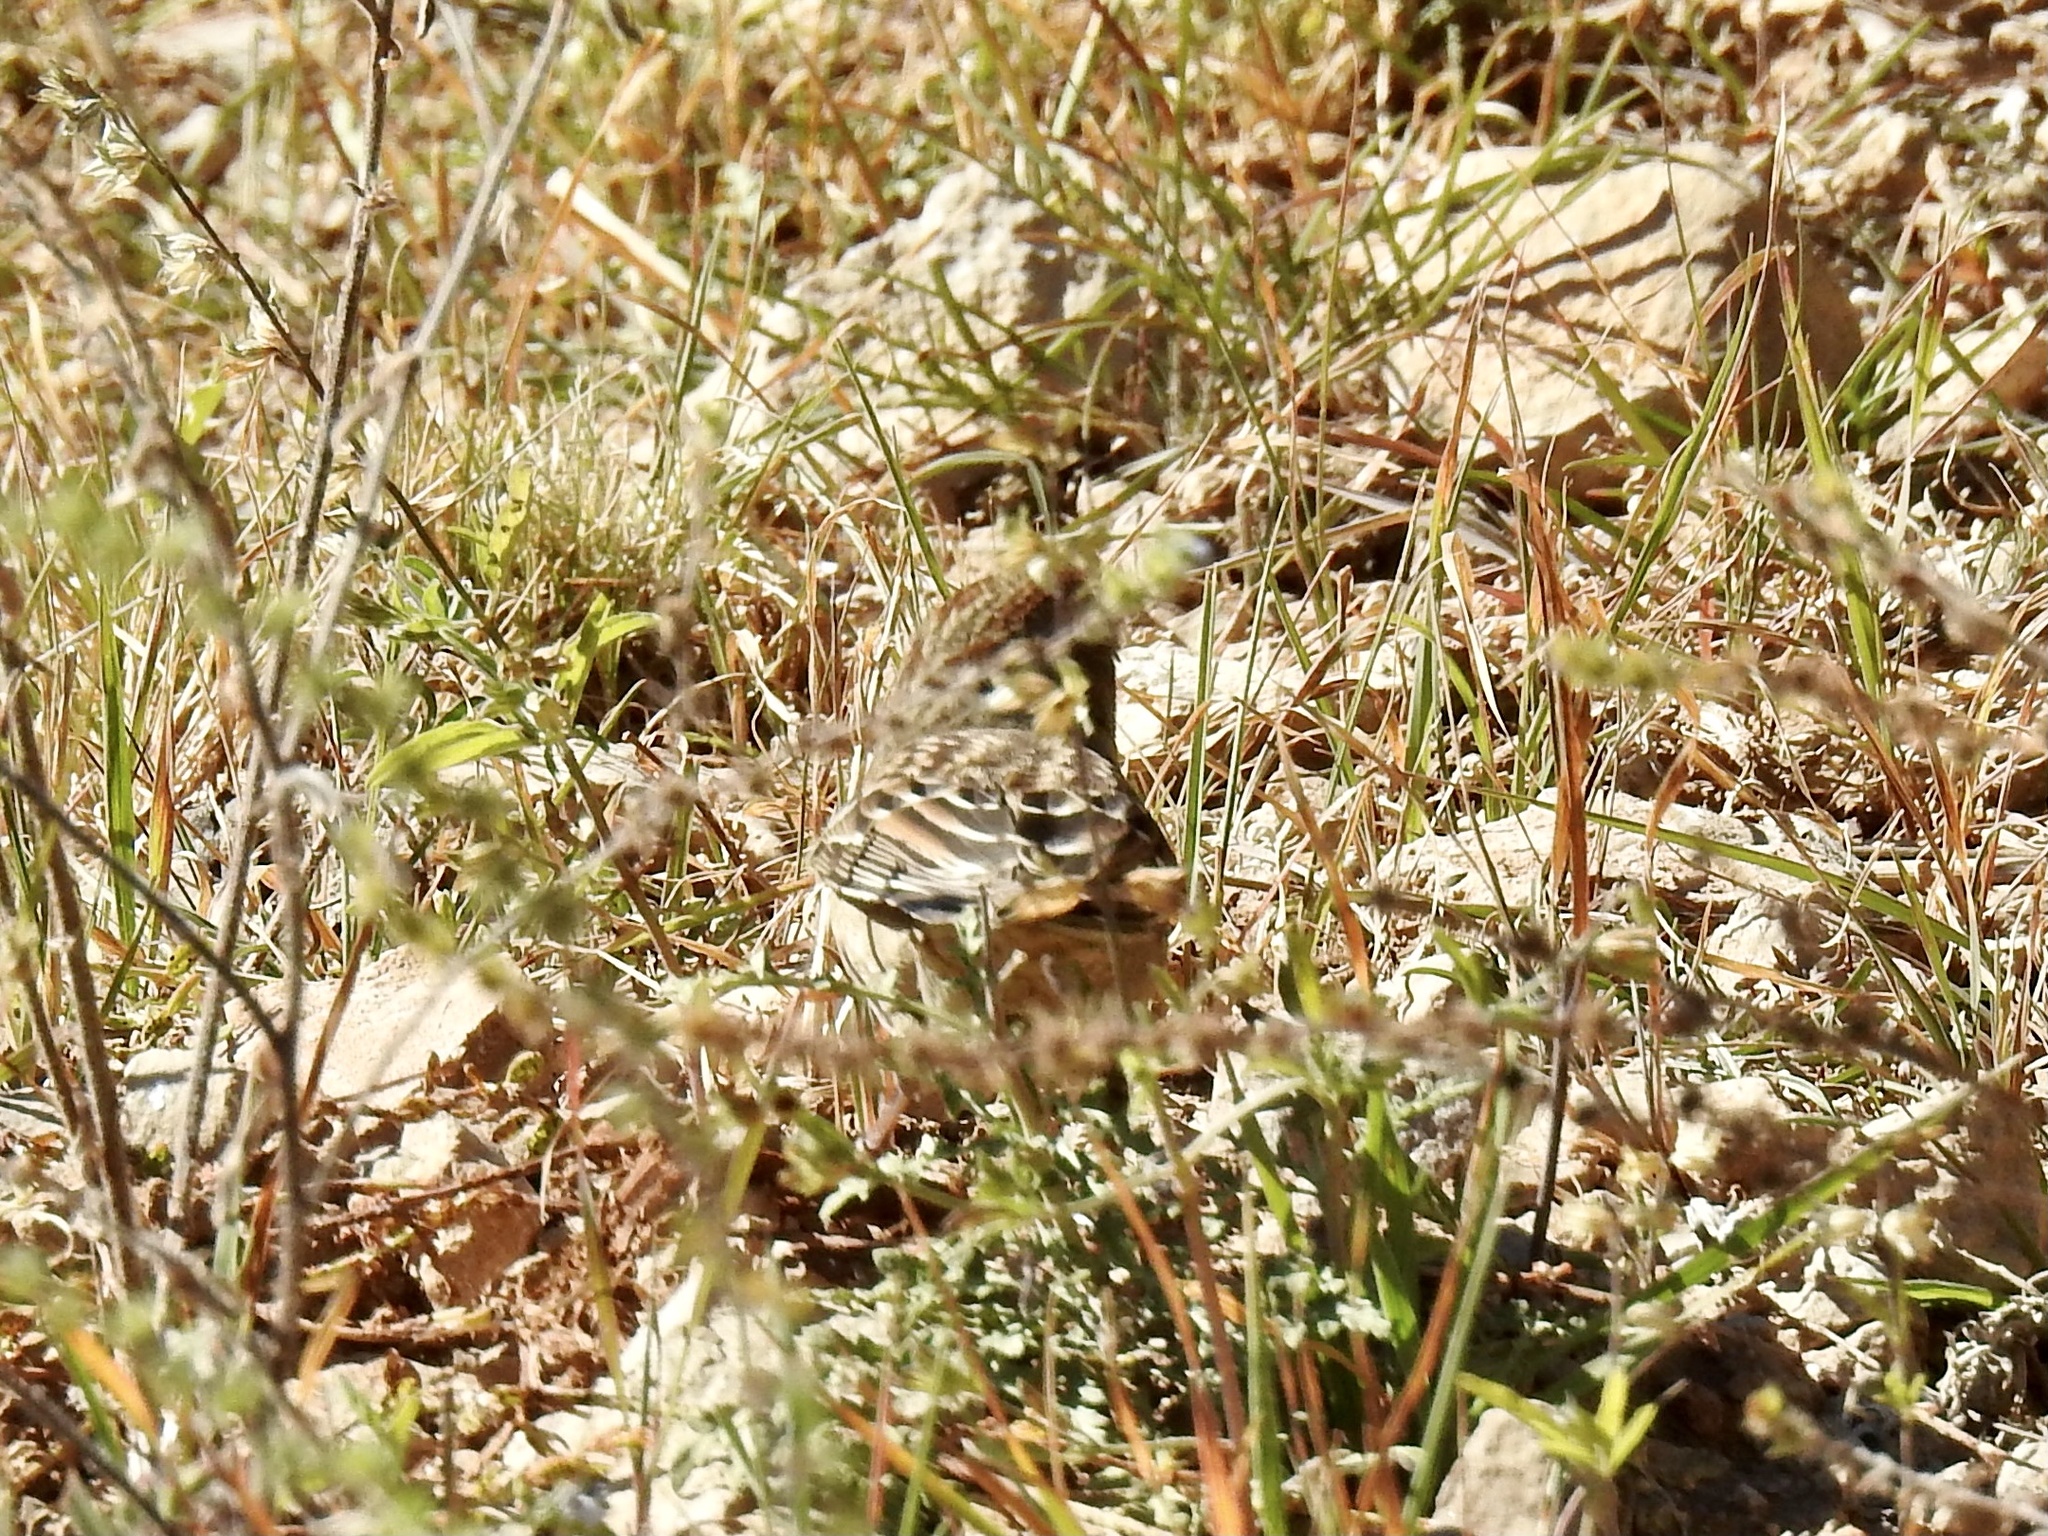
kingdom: Animalia
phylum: Chordata
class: Aves
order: Passeriformes
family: Passerellidae
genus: Zonotrichia
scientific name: Zonotrichia leucophrys
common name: White-crowned sparrow
